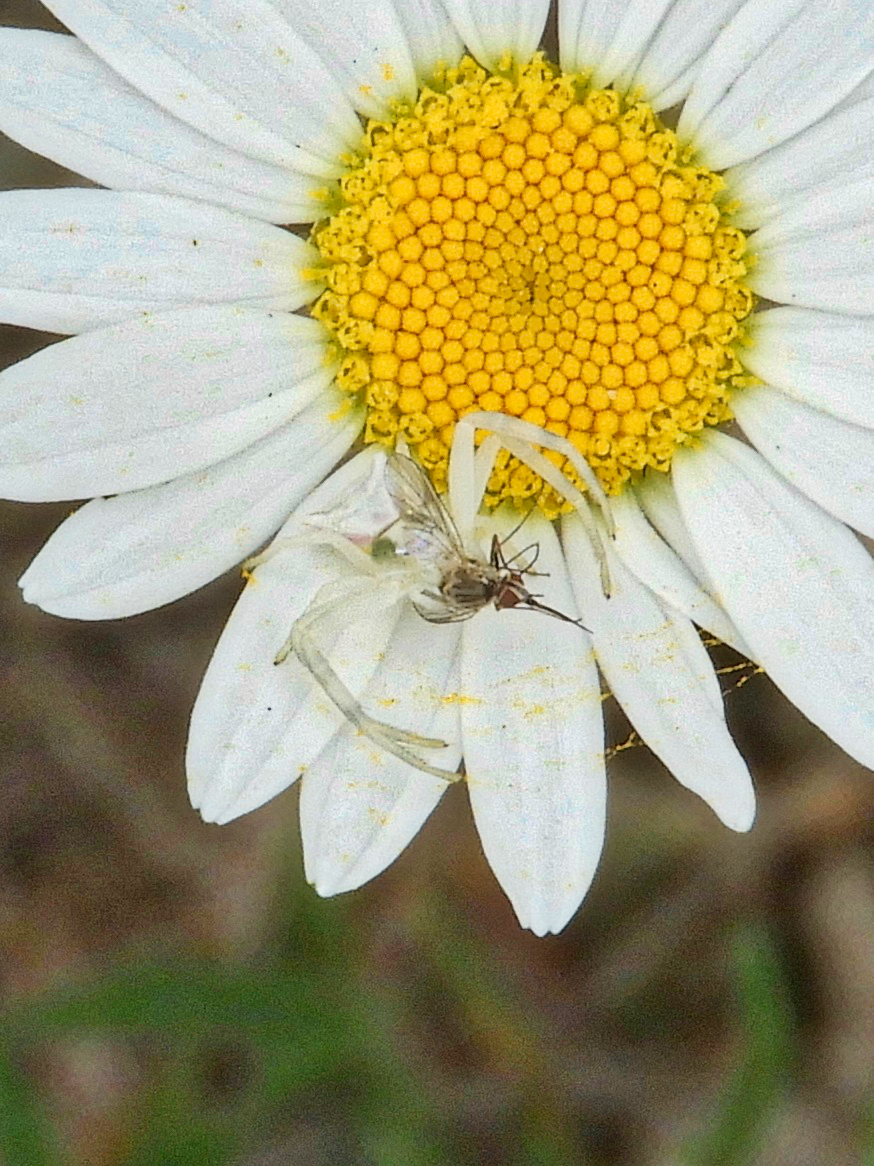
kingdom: Animalia
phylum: Arthropoda
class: Arachnida
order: Araneae
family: Thomisidae
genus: Thomisus
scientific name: Thomisus onustus
